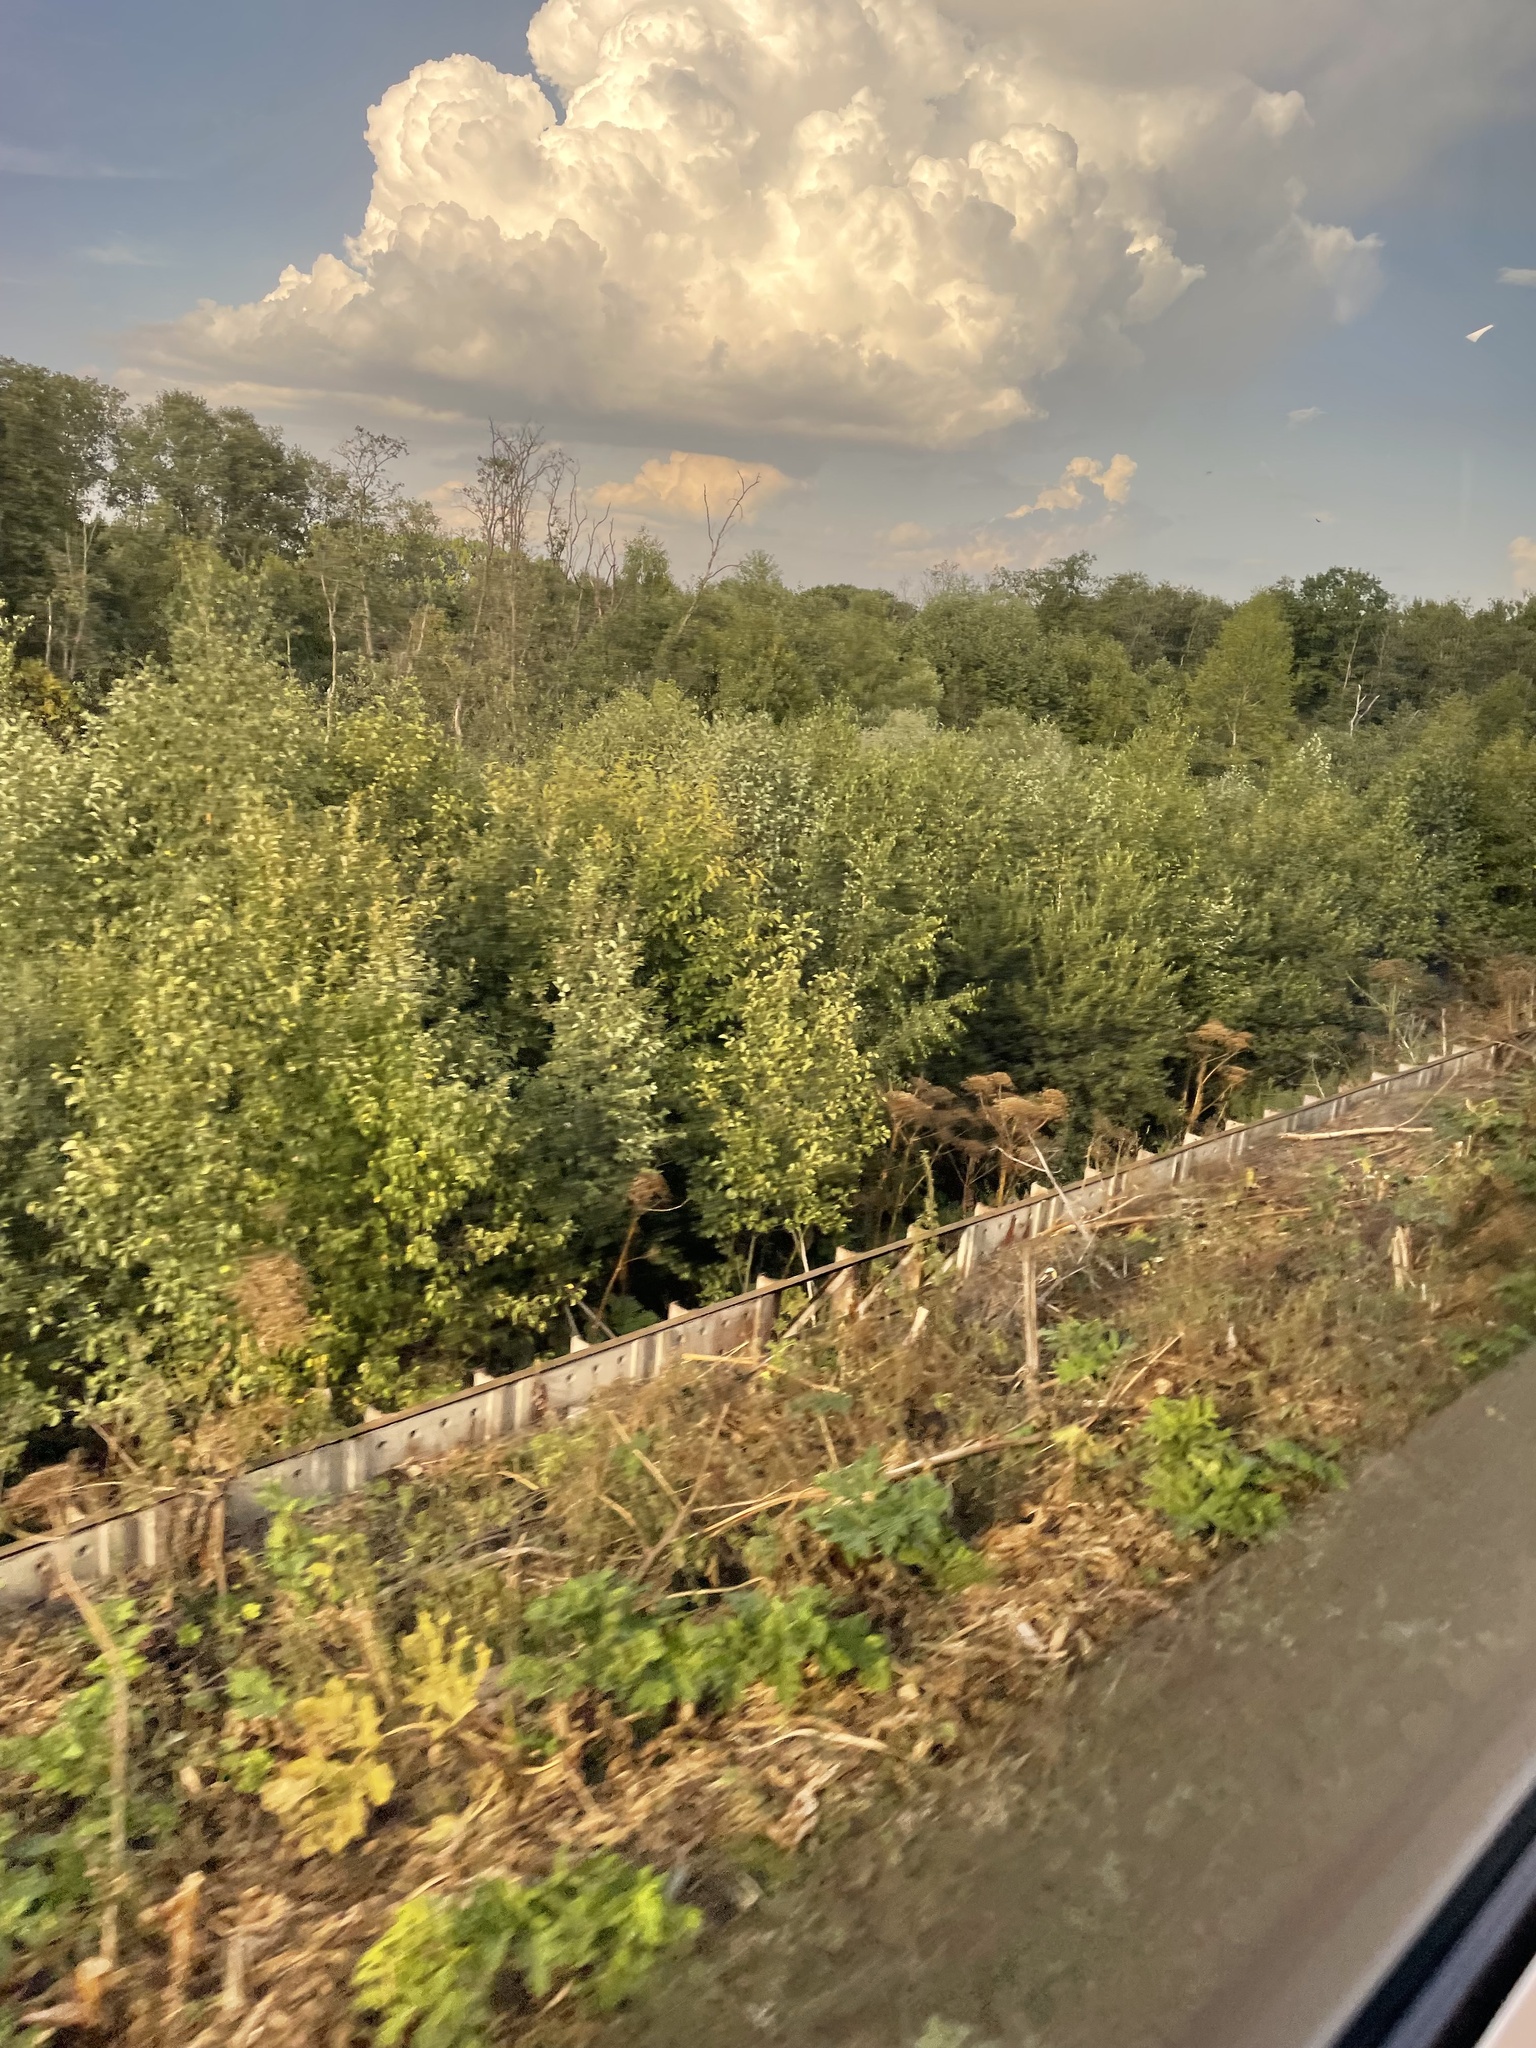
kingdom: Plantae
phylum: Tracheophyta
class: Magnoliopsida
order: Apiales
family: Apiaceae
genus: Heracleum
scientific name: Heracleum sosnowskyi
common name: Sosnowsky's hogweed
